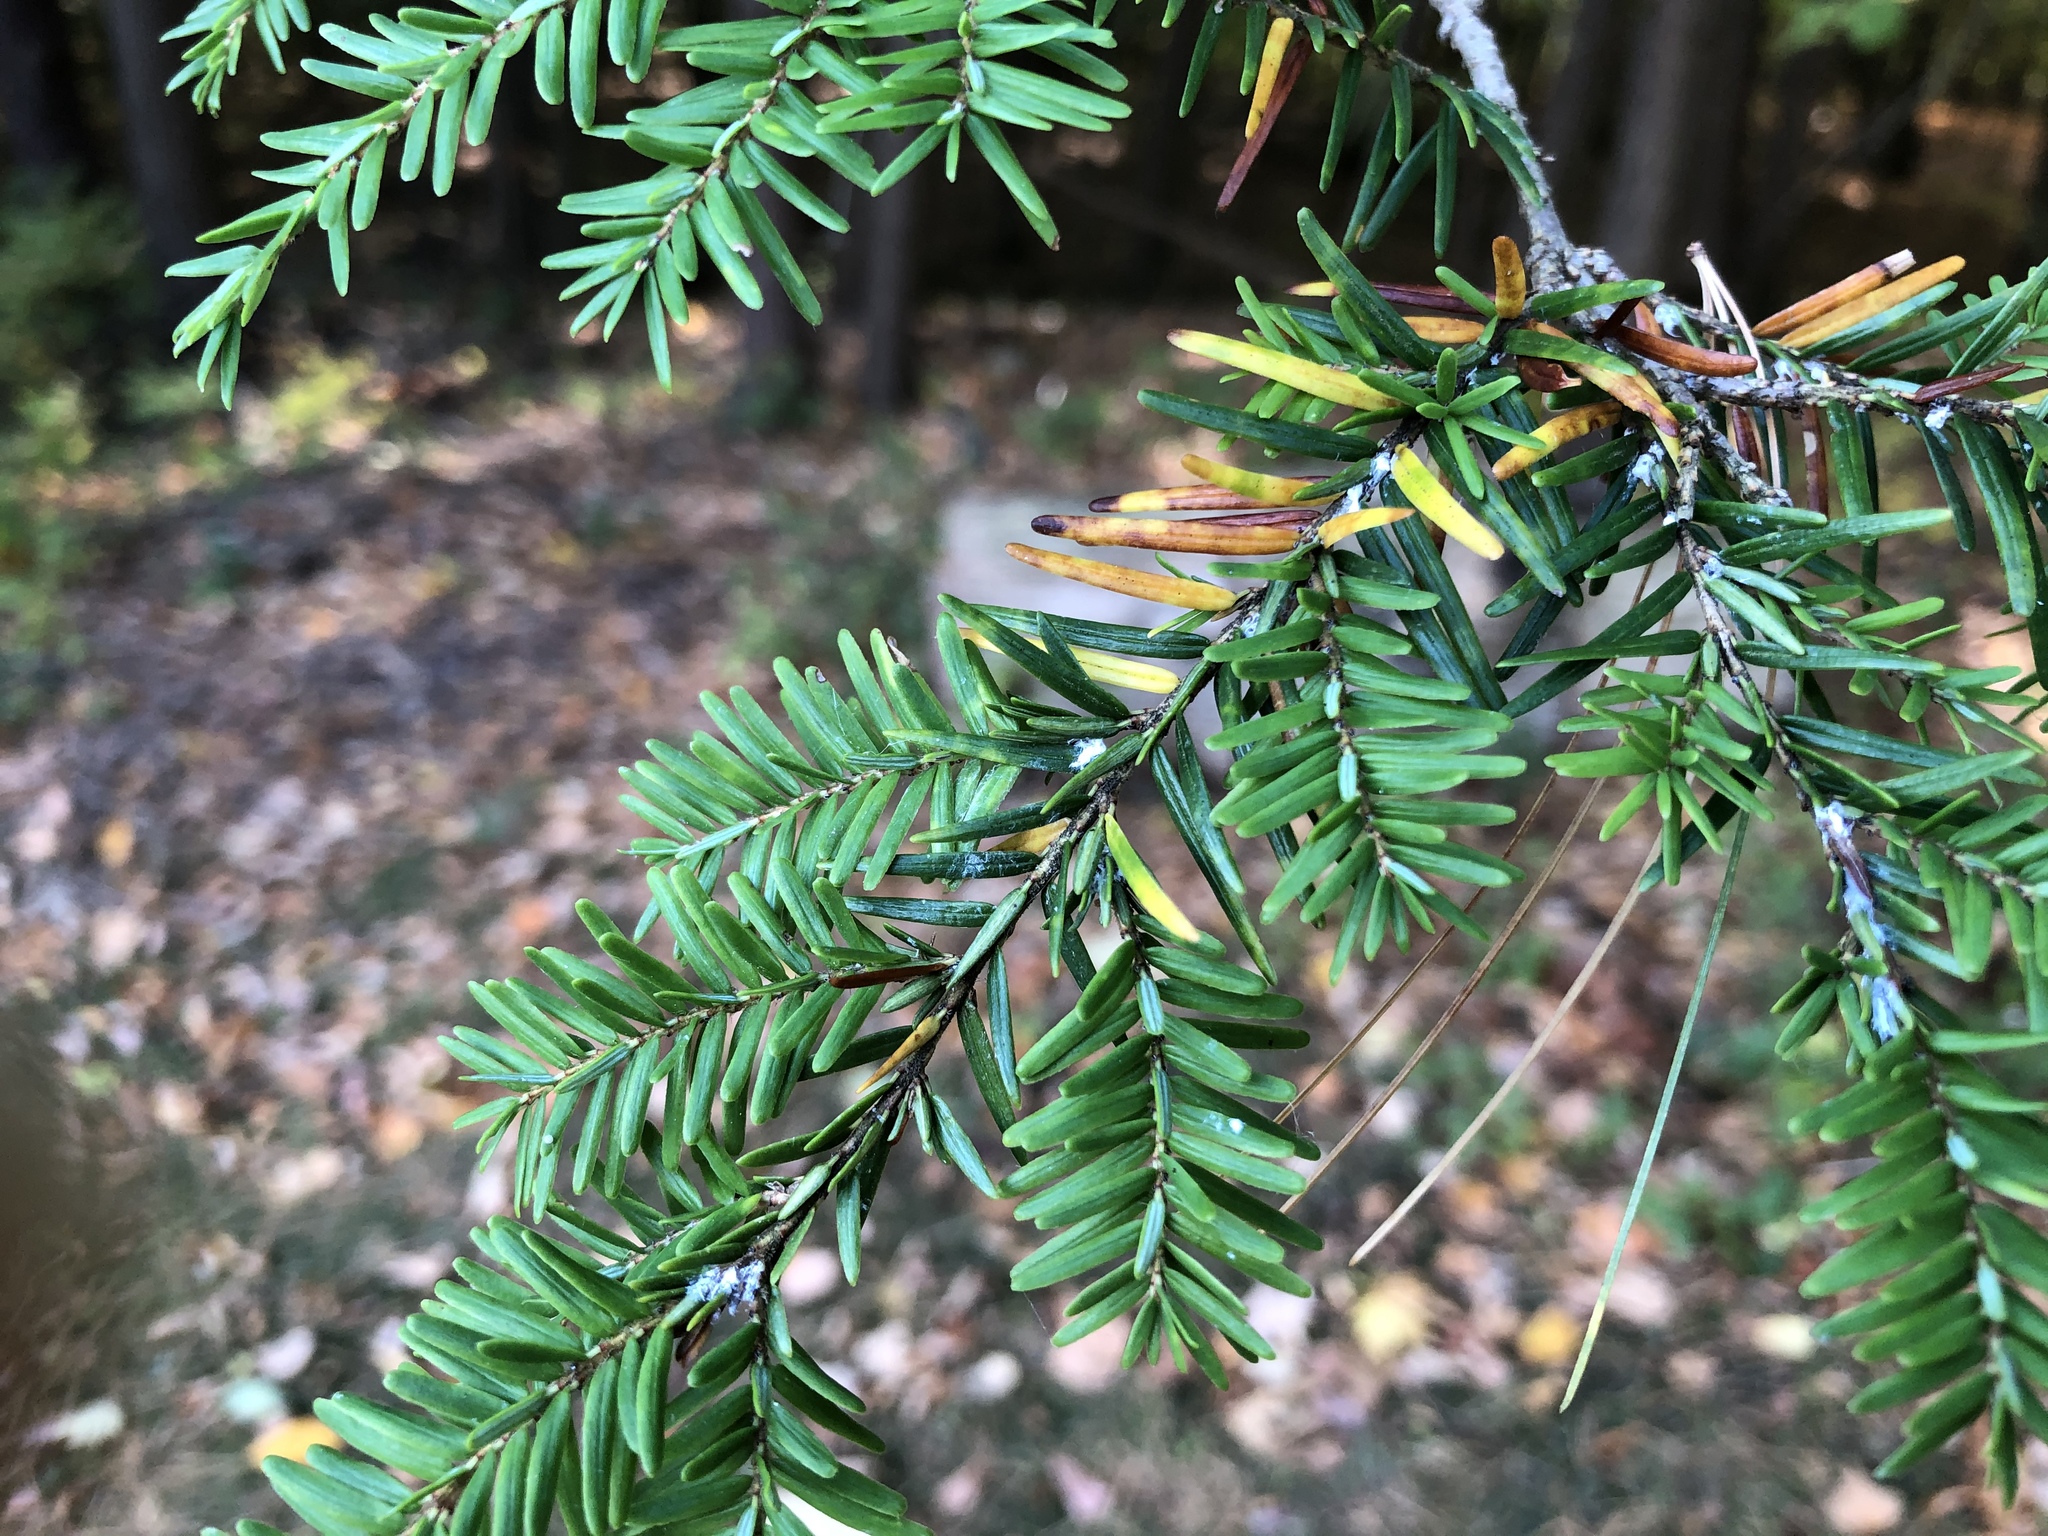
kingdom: Animalia
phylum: Arthropoda
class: Insecta
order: Hemiptera
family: Adelgidae
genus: Adelges
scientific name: Adelges tsugae
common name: Hemlock woolly adelgid
